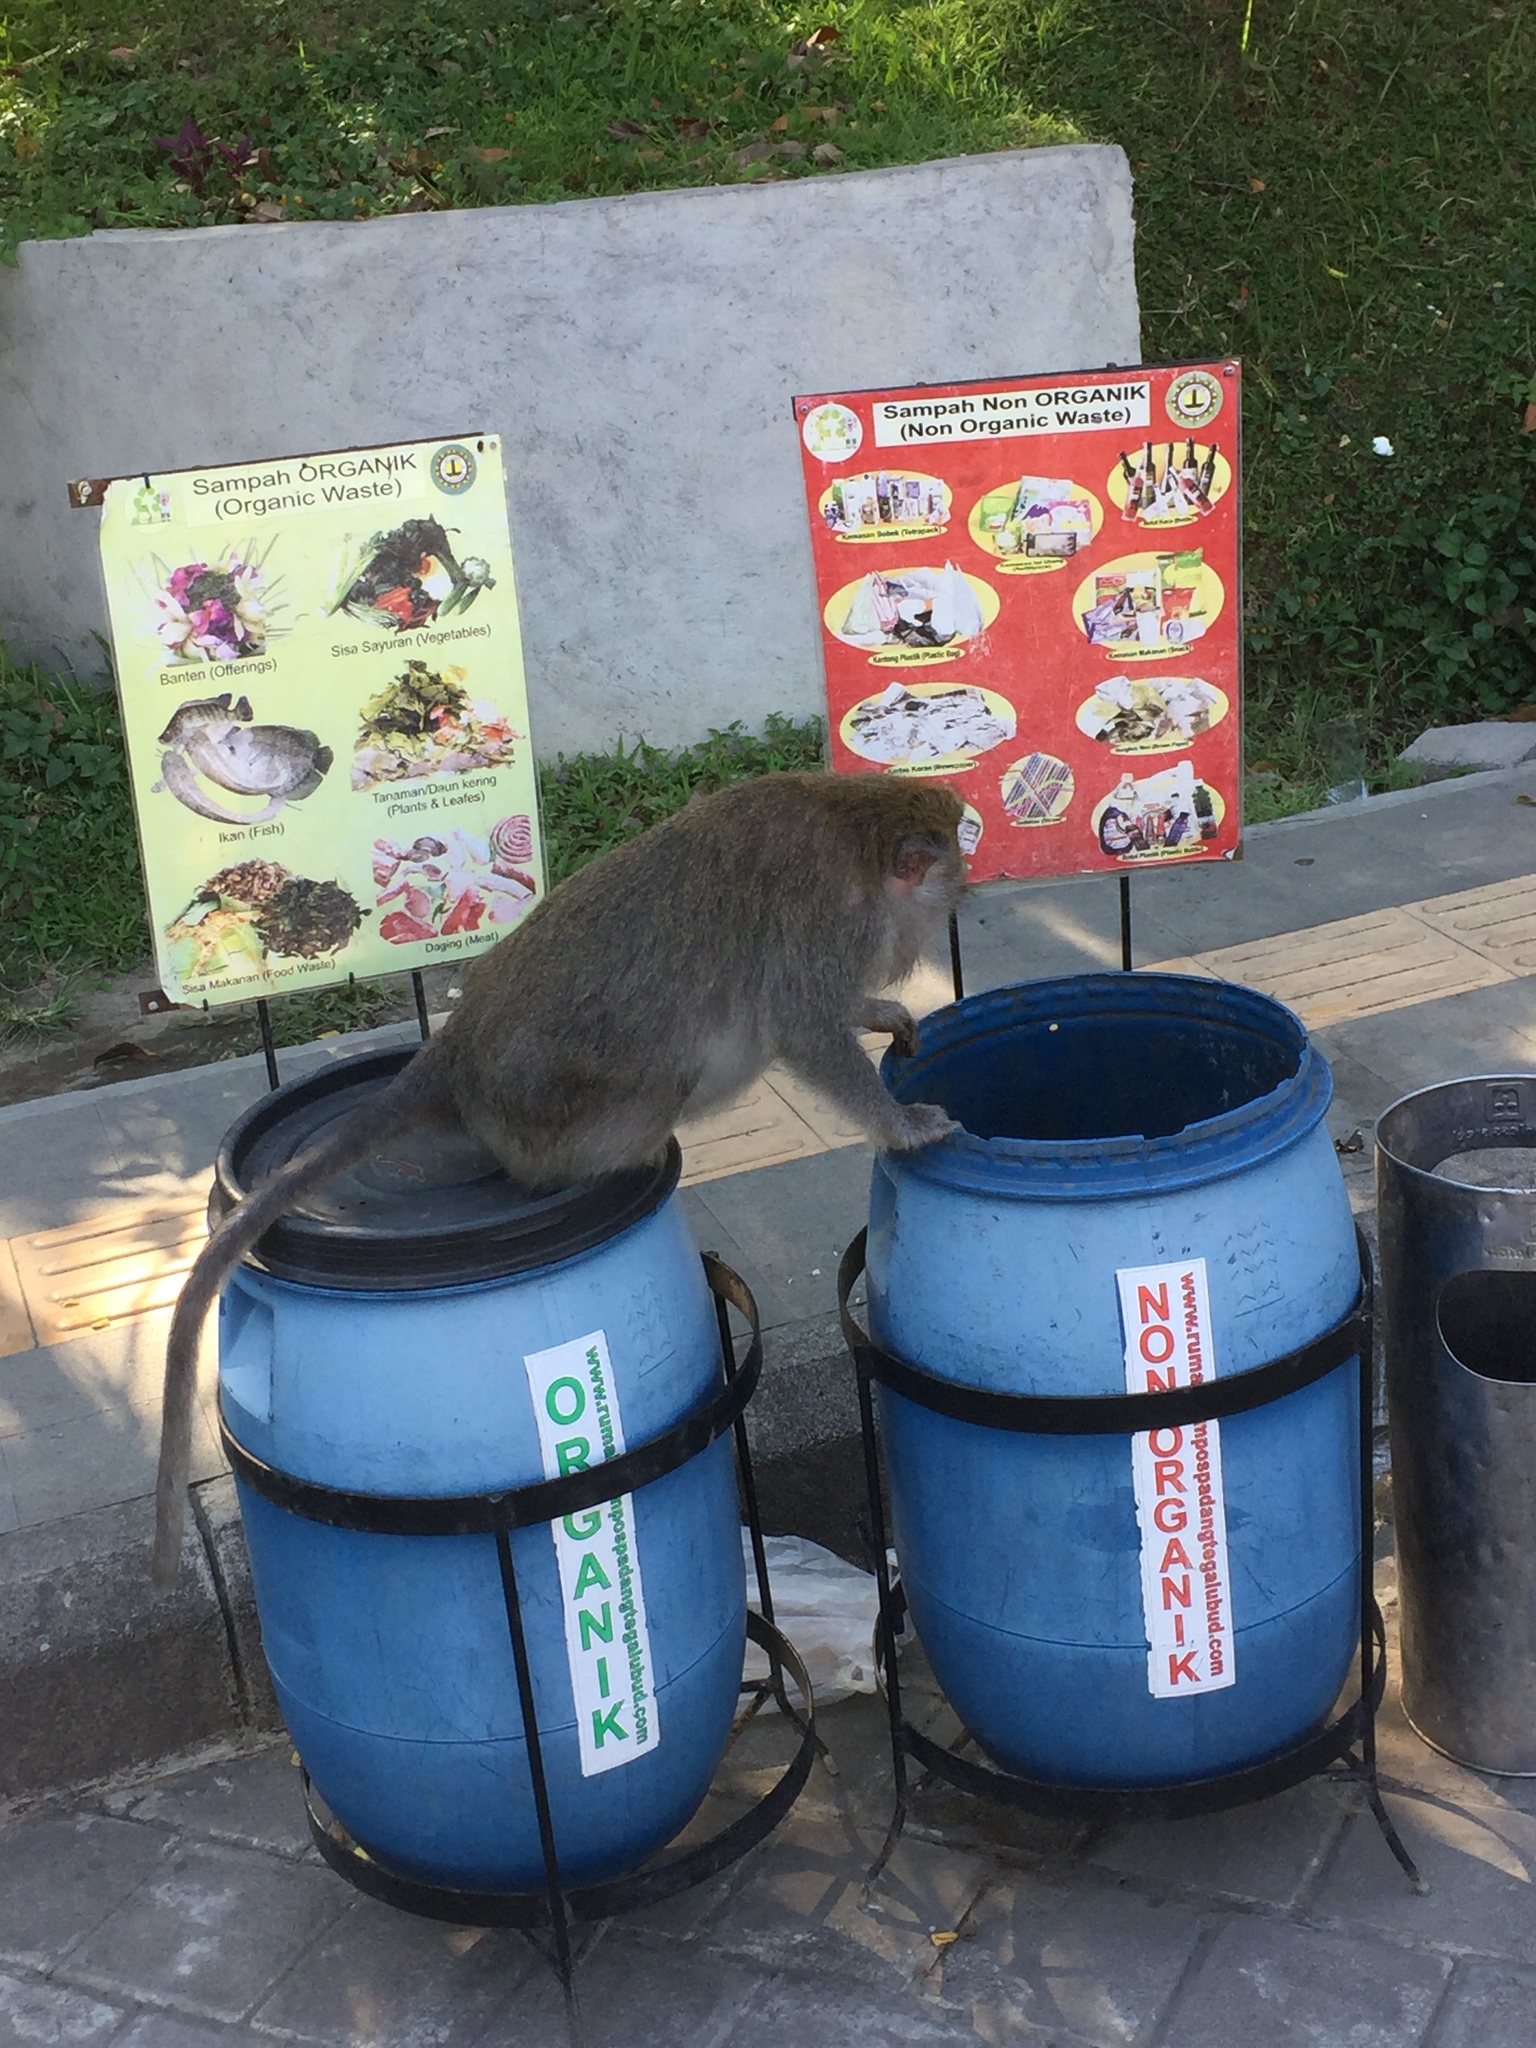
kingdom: Animalia
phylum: Chordata
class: Mammalia
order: Primates
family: Cercopithecidae
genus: Macaca
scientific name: Macaca fascicularis
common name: Crab-eating macaque
